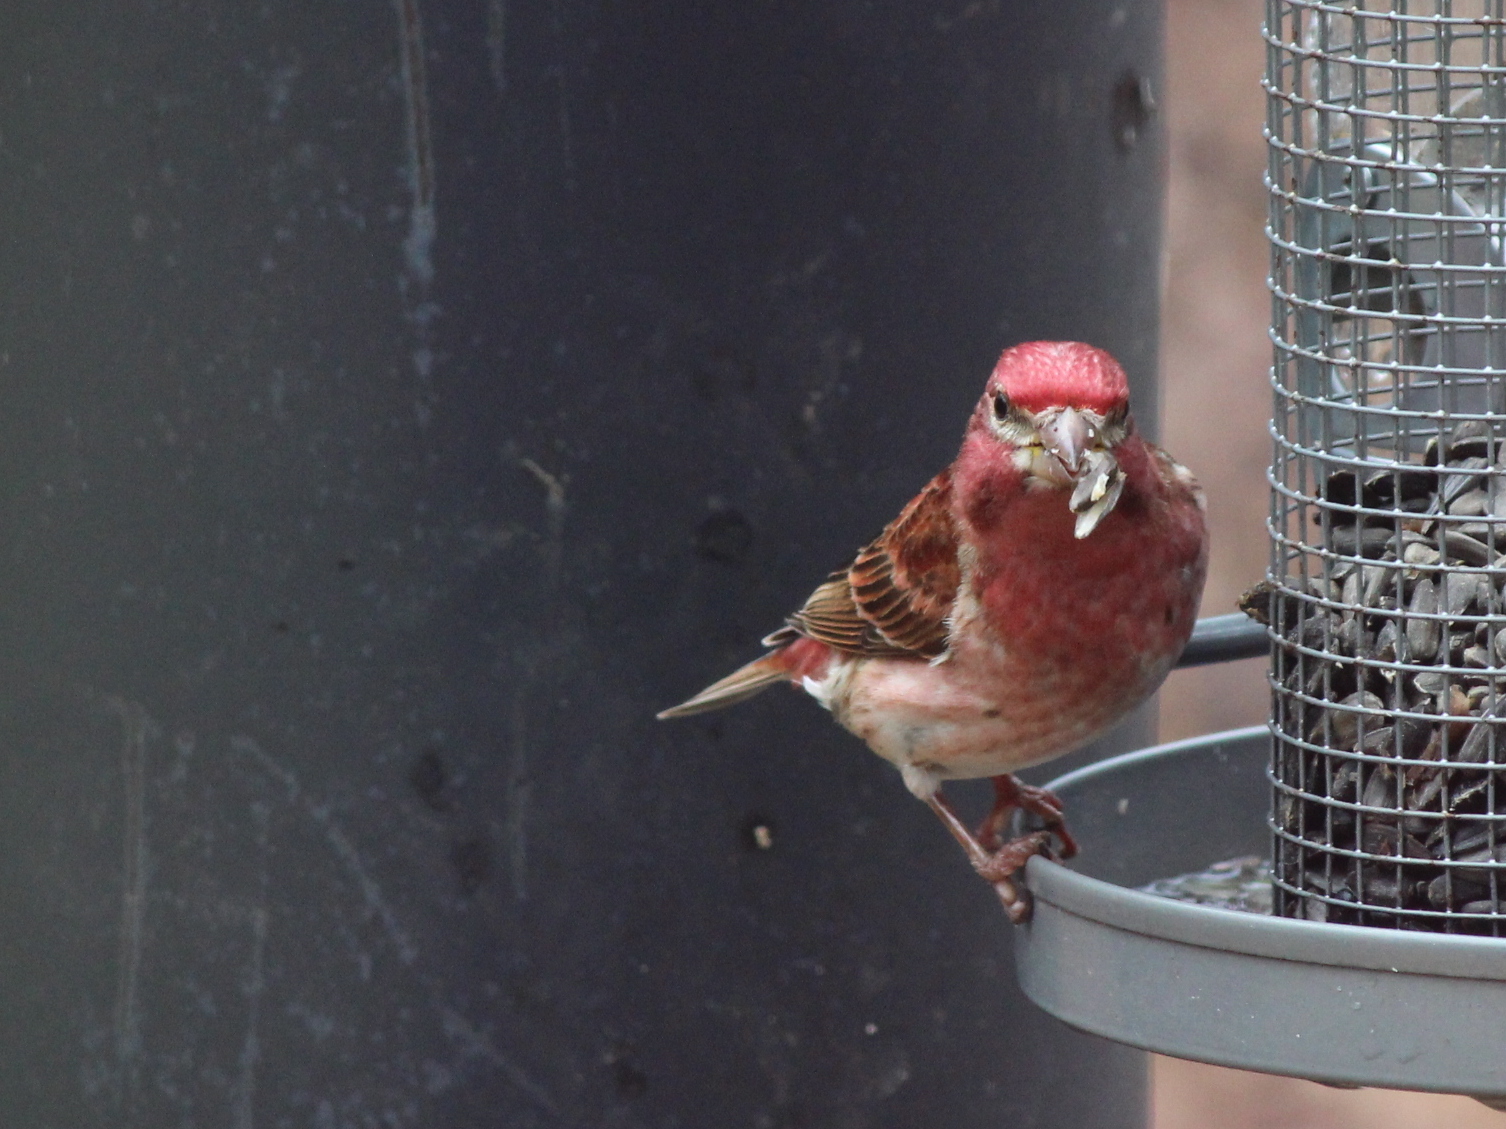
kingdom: Animalia
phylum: Chordata
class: Aves
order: Passeriformes
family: Fringillidae
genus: Haemorhous
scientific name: Haemorhous purpureus
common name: Purple finch
